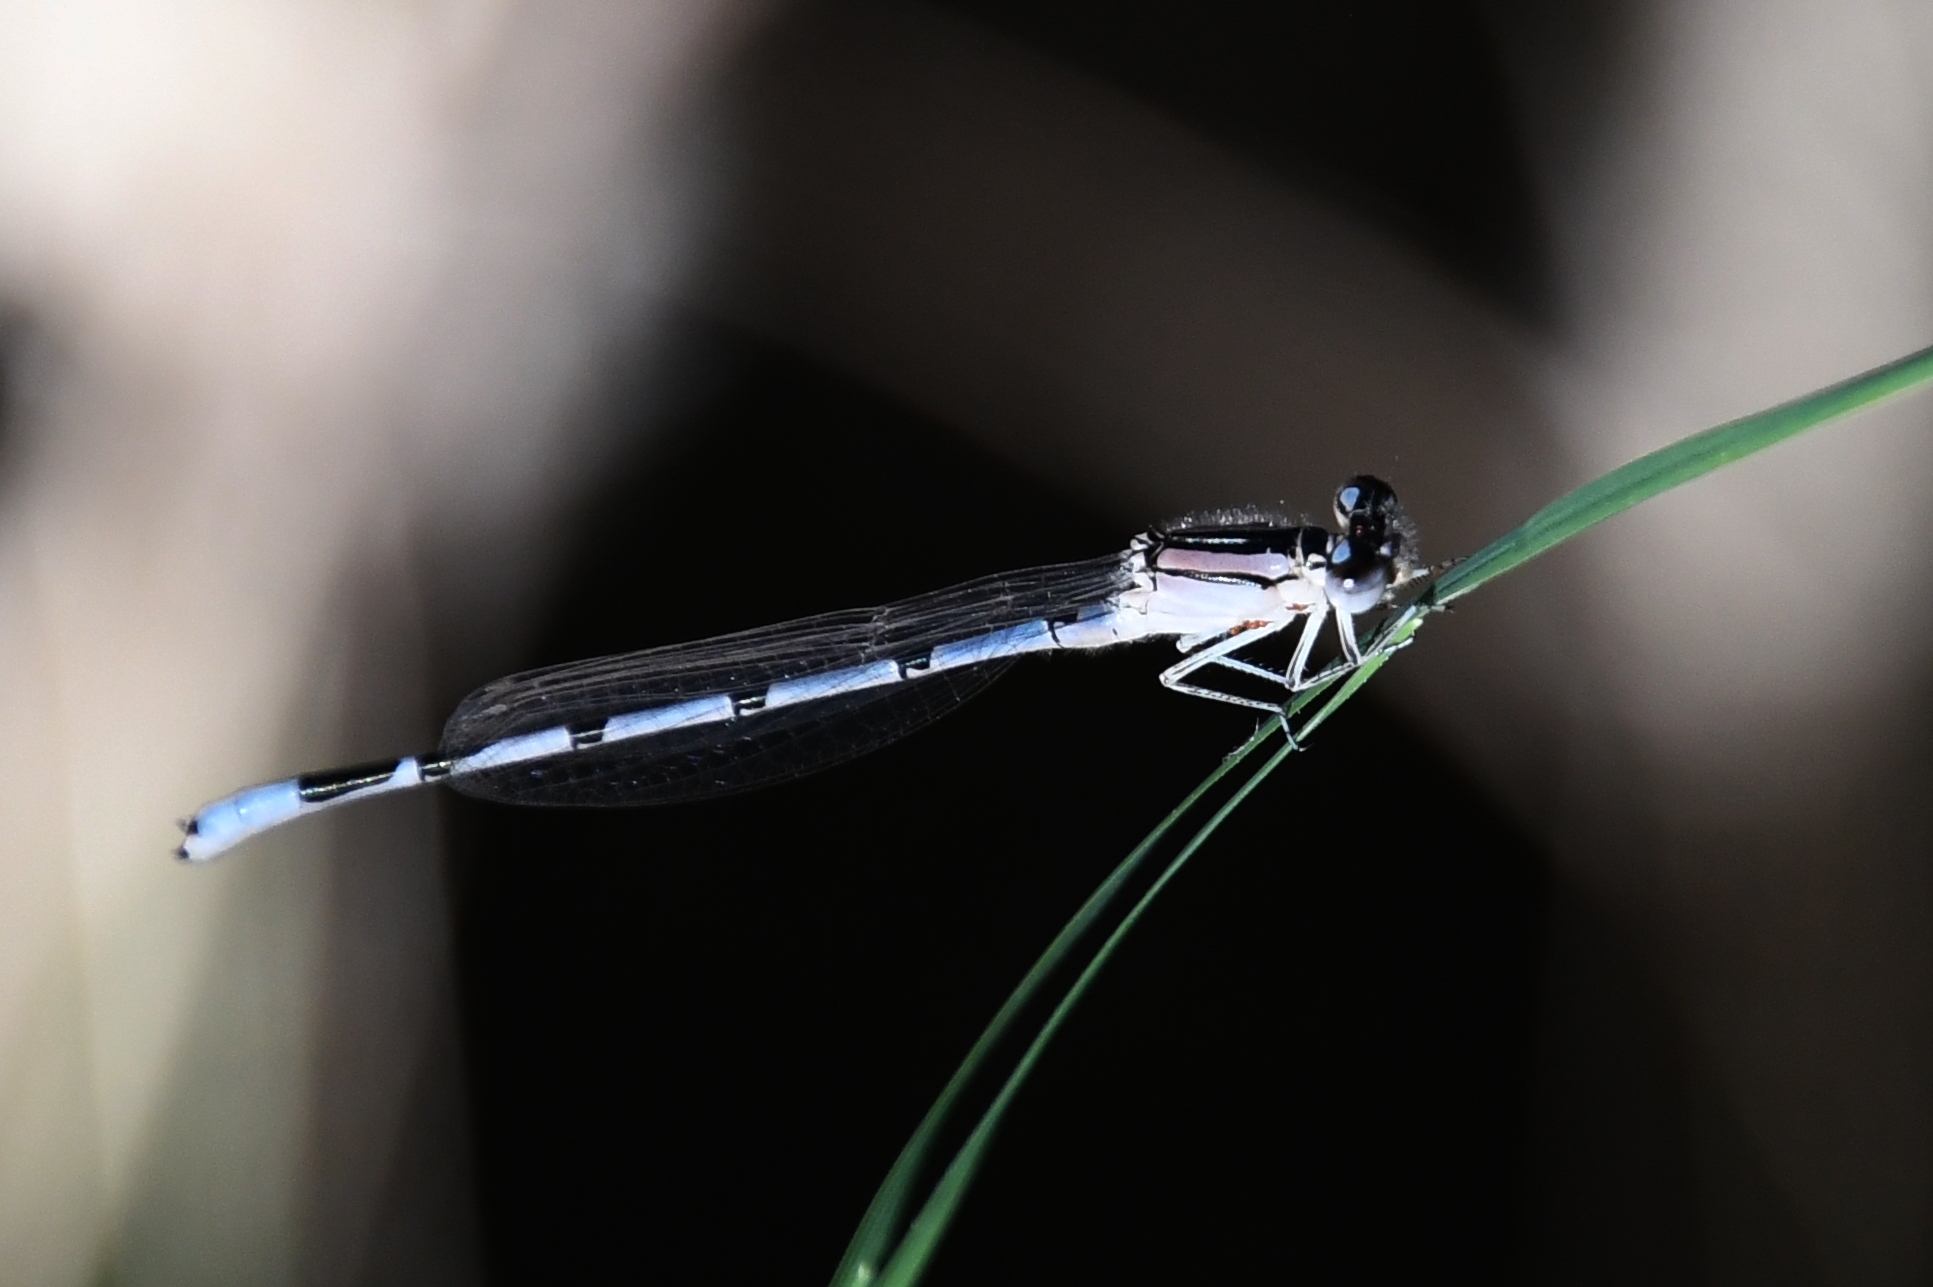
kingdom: Animalia
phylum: Arthropoda
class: Insecta
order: Odonata
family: Coenagrionidae
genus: Enallagma
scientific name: Enallagma civile
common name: Damselfly
